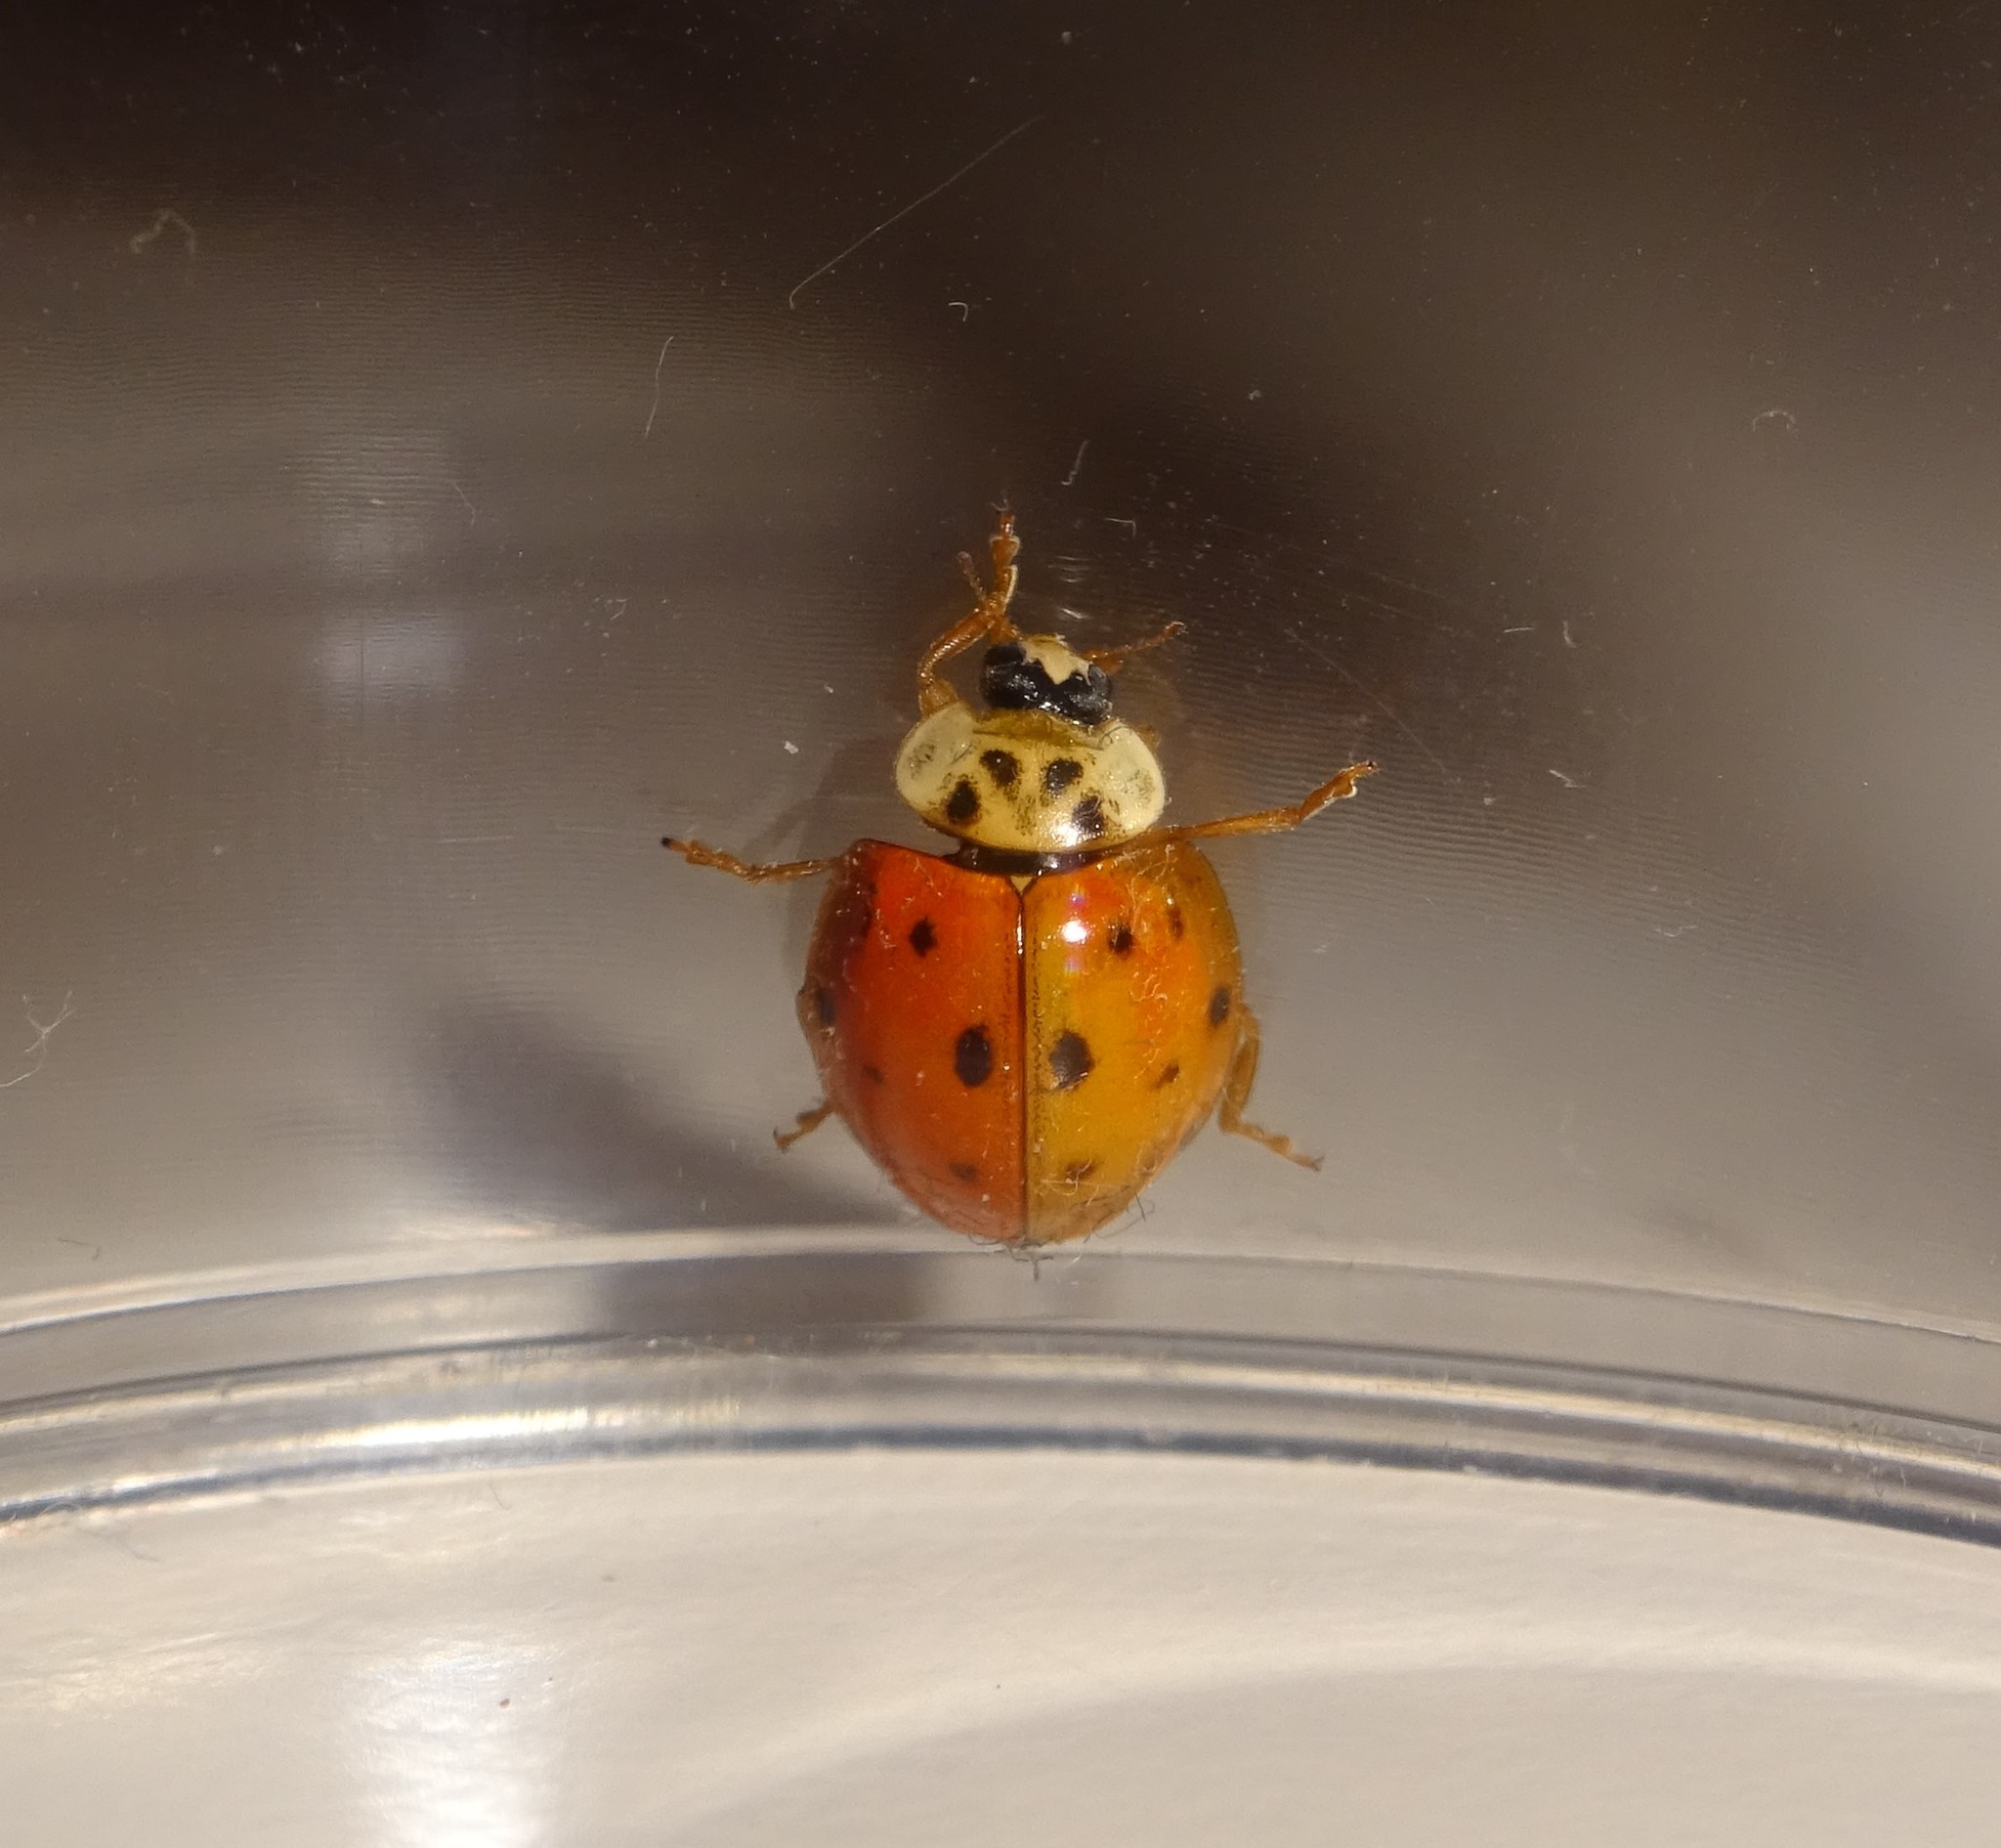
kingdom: Animalia
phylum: Arthropoda
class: Insecta
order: Coleoptera
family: Coccinellidae
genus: Harmonia
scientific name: Harmonia axyridis
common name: Harlequin ladybird
